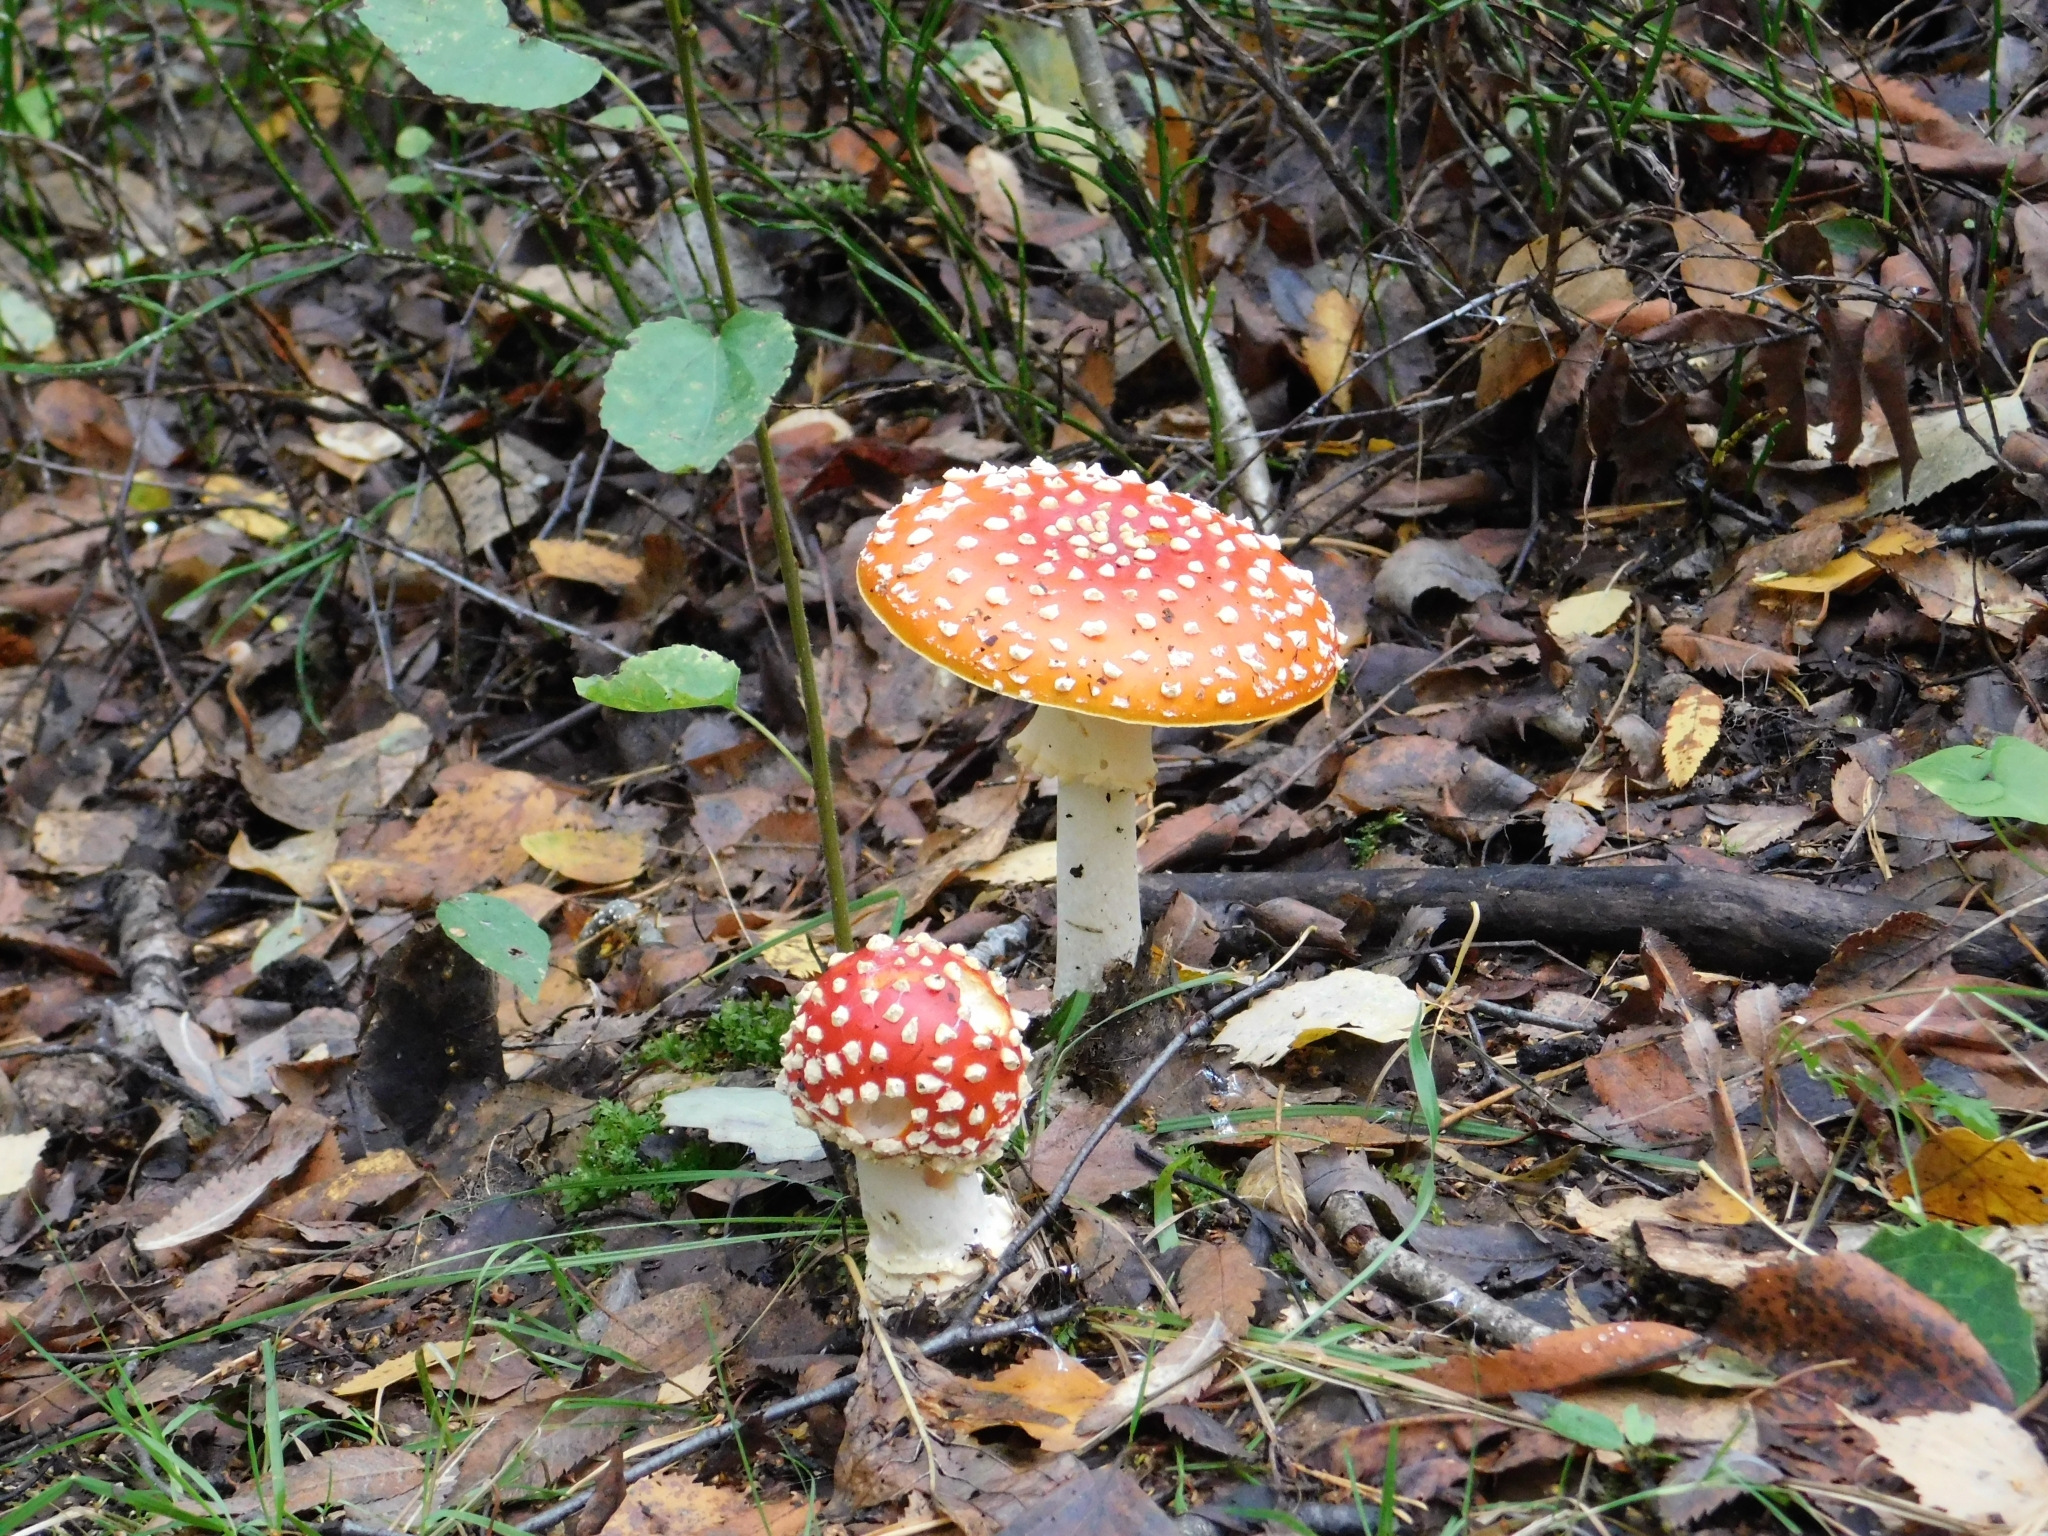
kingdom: Fungi
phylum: Basidiomycota
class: Agaricomycetes
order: Agaricales
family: Amanitaceae
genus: Amanita
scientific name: Amanita muscaria
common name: Fly agaric
